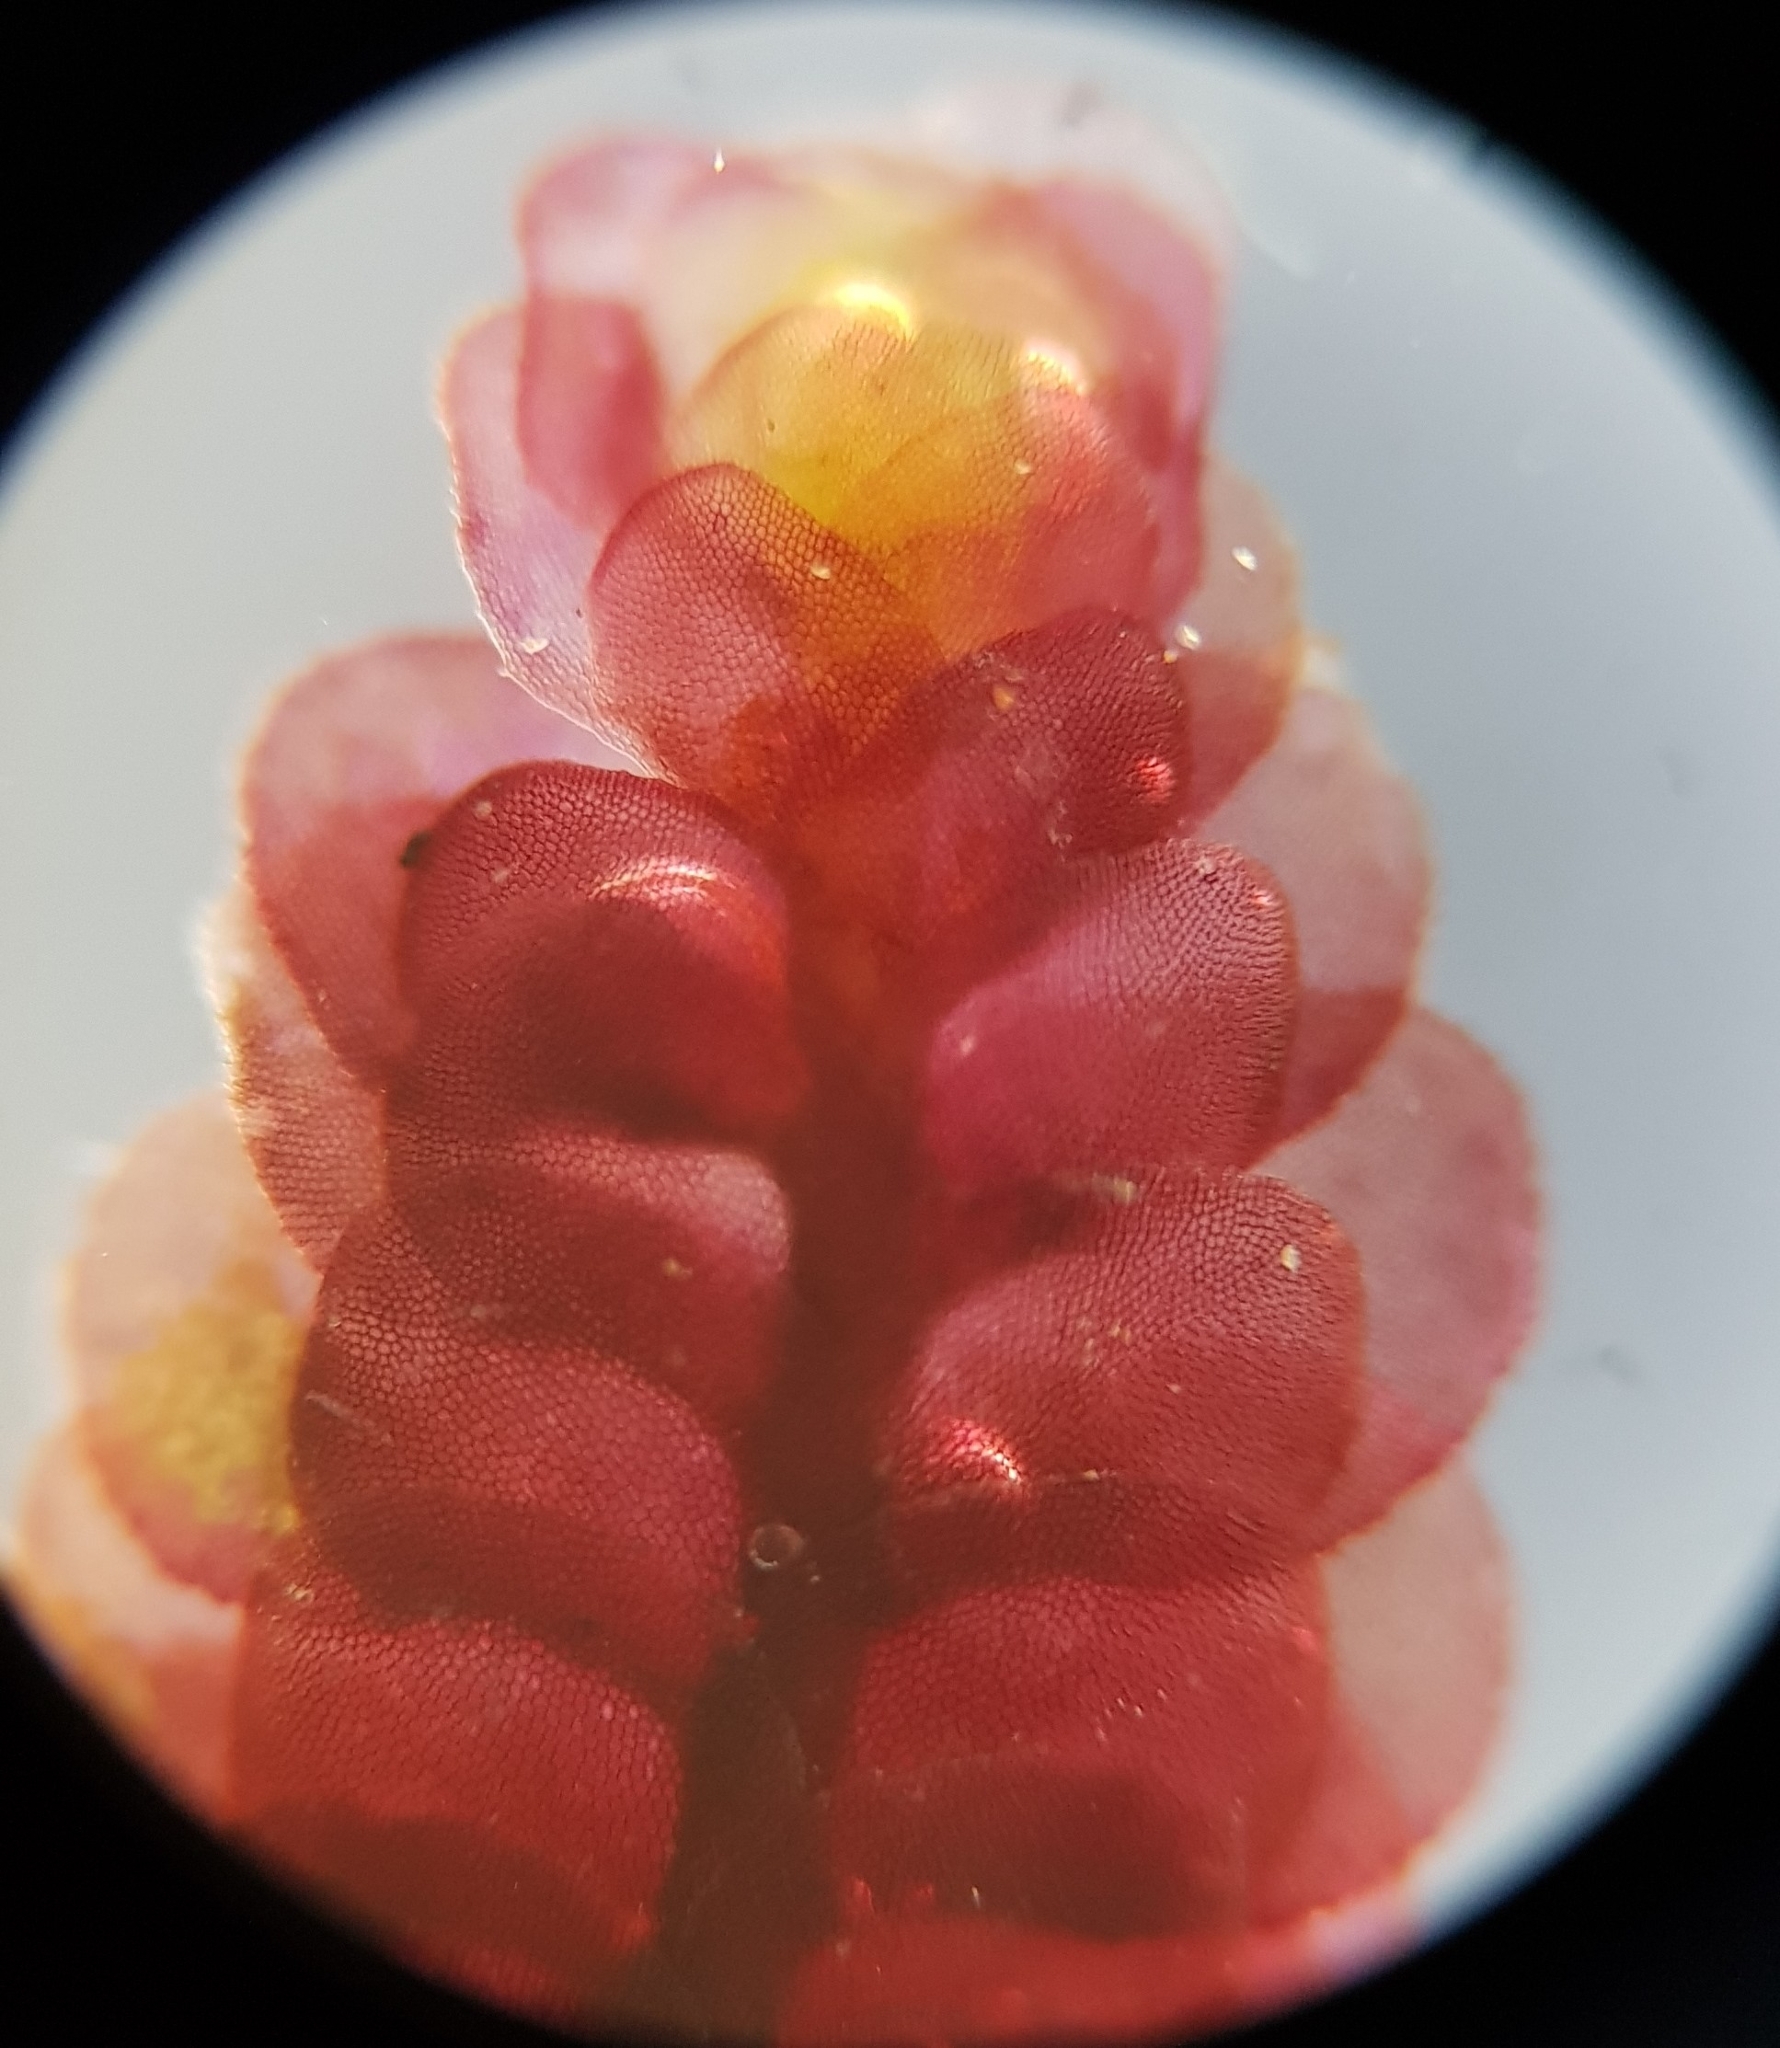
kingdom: Plantae
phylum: Marchantiophyta
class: Jungermanniopsida
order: Jungermanniales
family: Scapaniaceae
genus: Scapania
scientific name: Scapania undulata
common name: Water earwort
